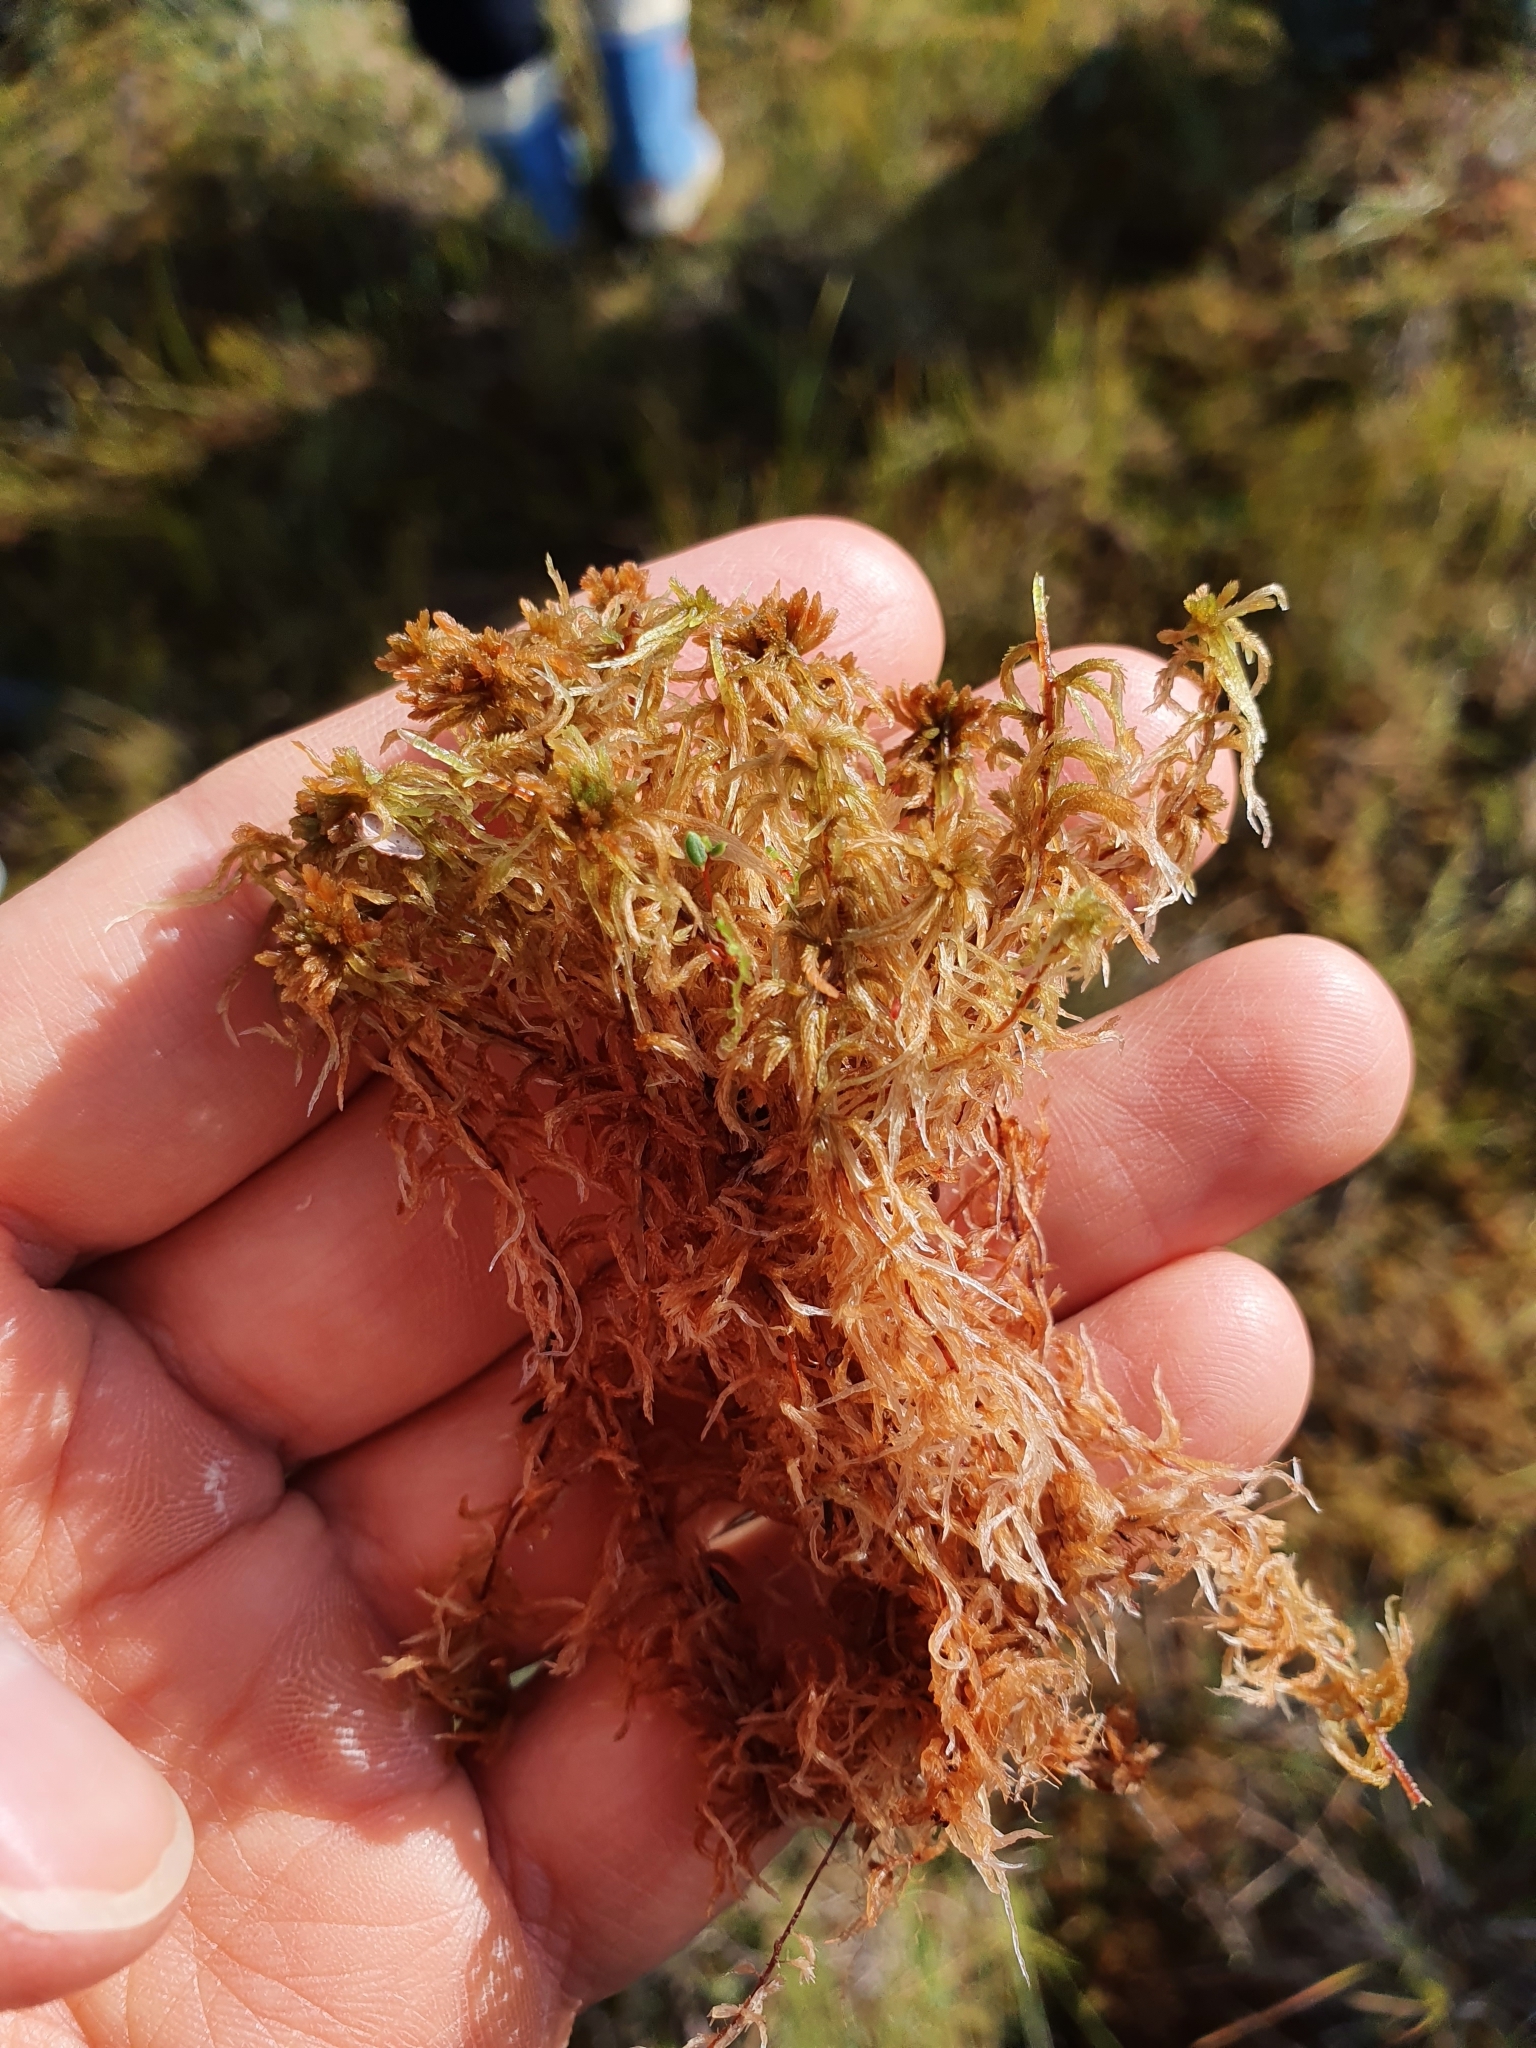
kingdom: Plantae
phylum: Bryophyta
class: Sphagnopsida
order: Sphagnales
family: Sphagnaceae
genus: Sphagnum
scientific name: Sphagnum fuscum
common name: Brown peat moss
